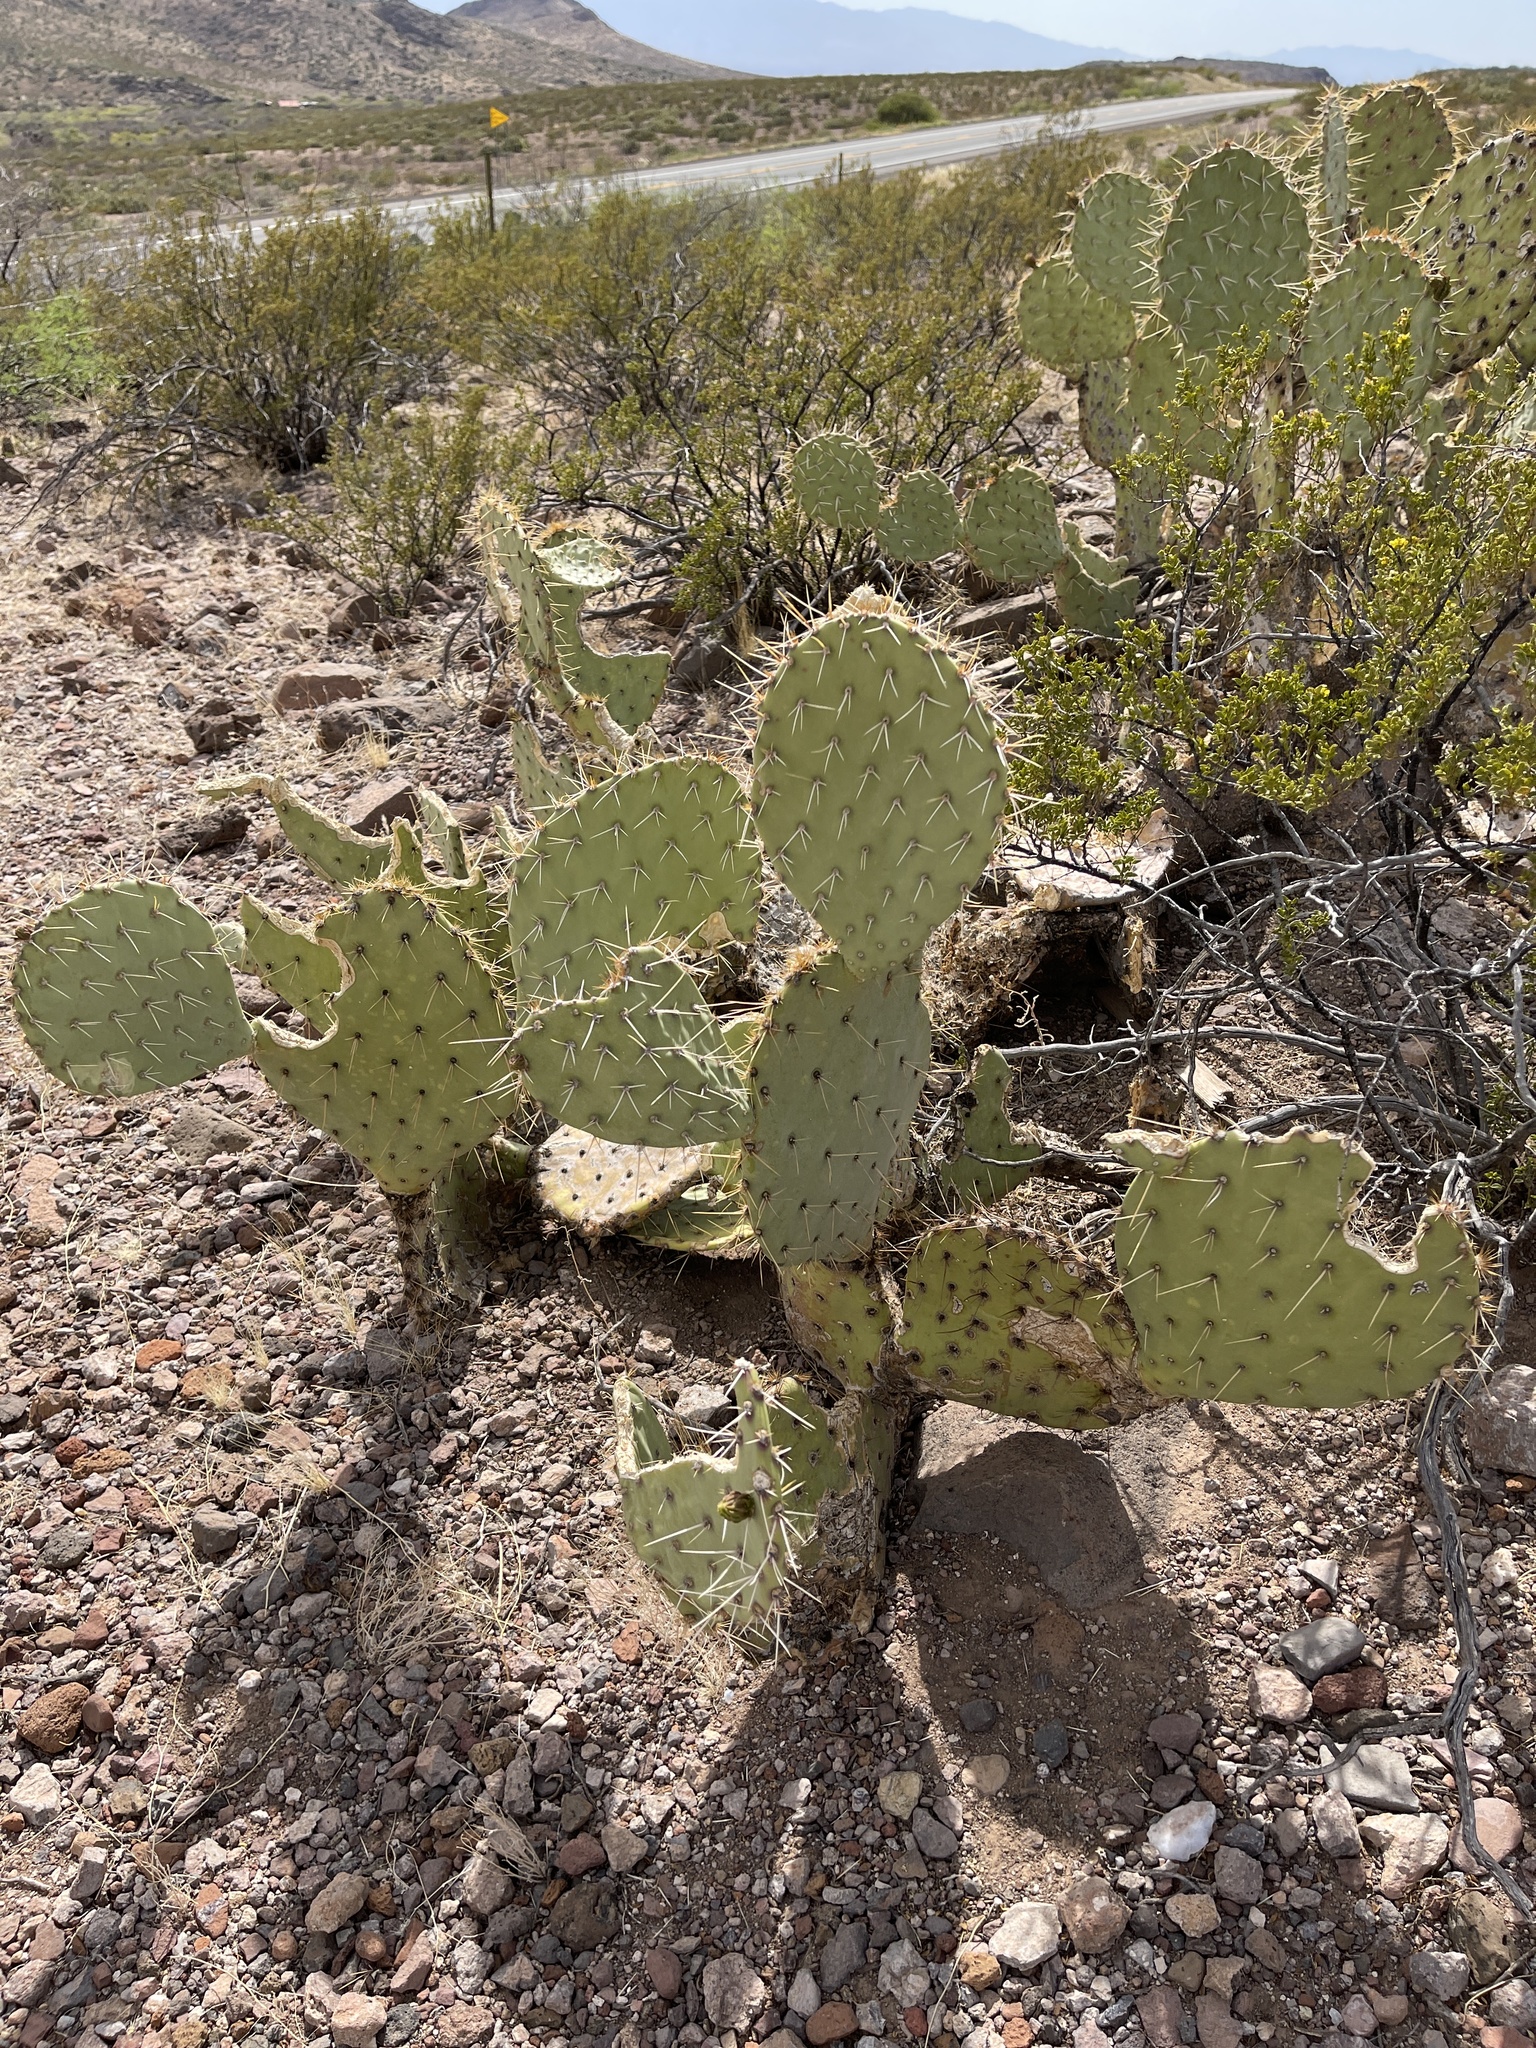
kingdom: Plantae
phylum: Tracheophyta
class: Magnoliopsida
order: Caryophyllales
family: Cactaceae
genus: Opuntia
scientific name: Opuntia engelmannii
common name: Cactus-apple
